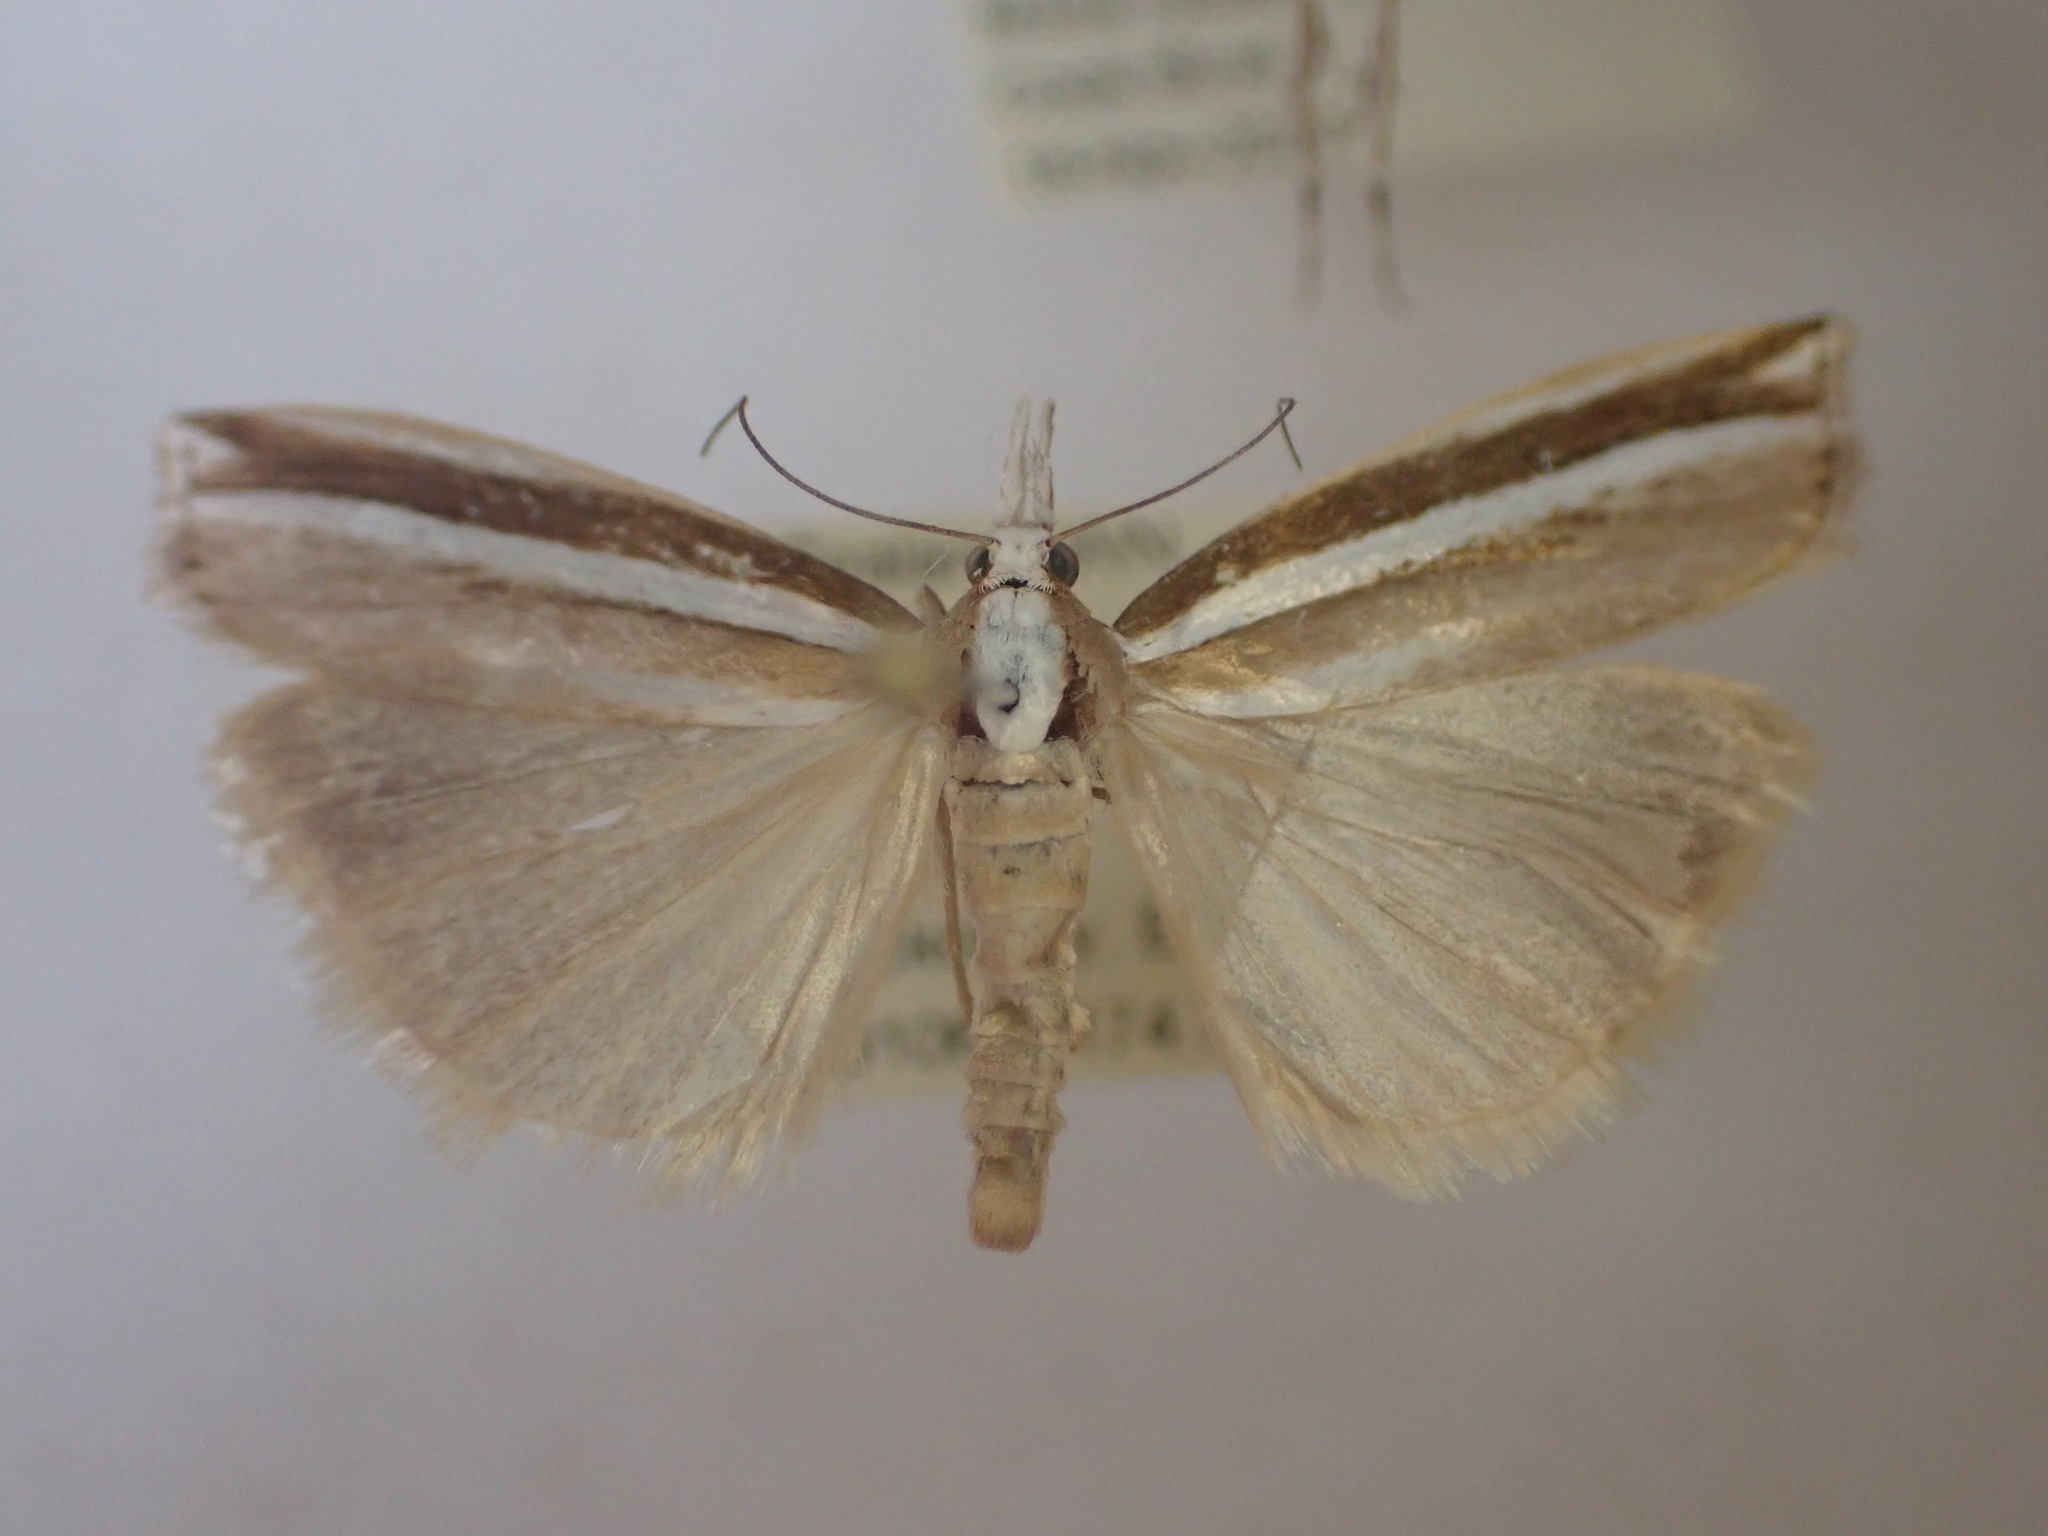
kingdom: Animalia
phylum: Arthropoda
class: Insecta
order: Lepidoptera
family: Crambidae
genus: Orocrambus
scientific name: Orocrambus apicellus
